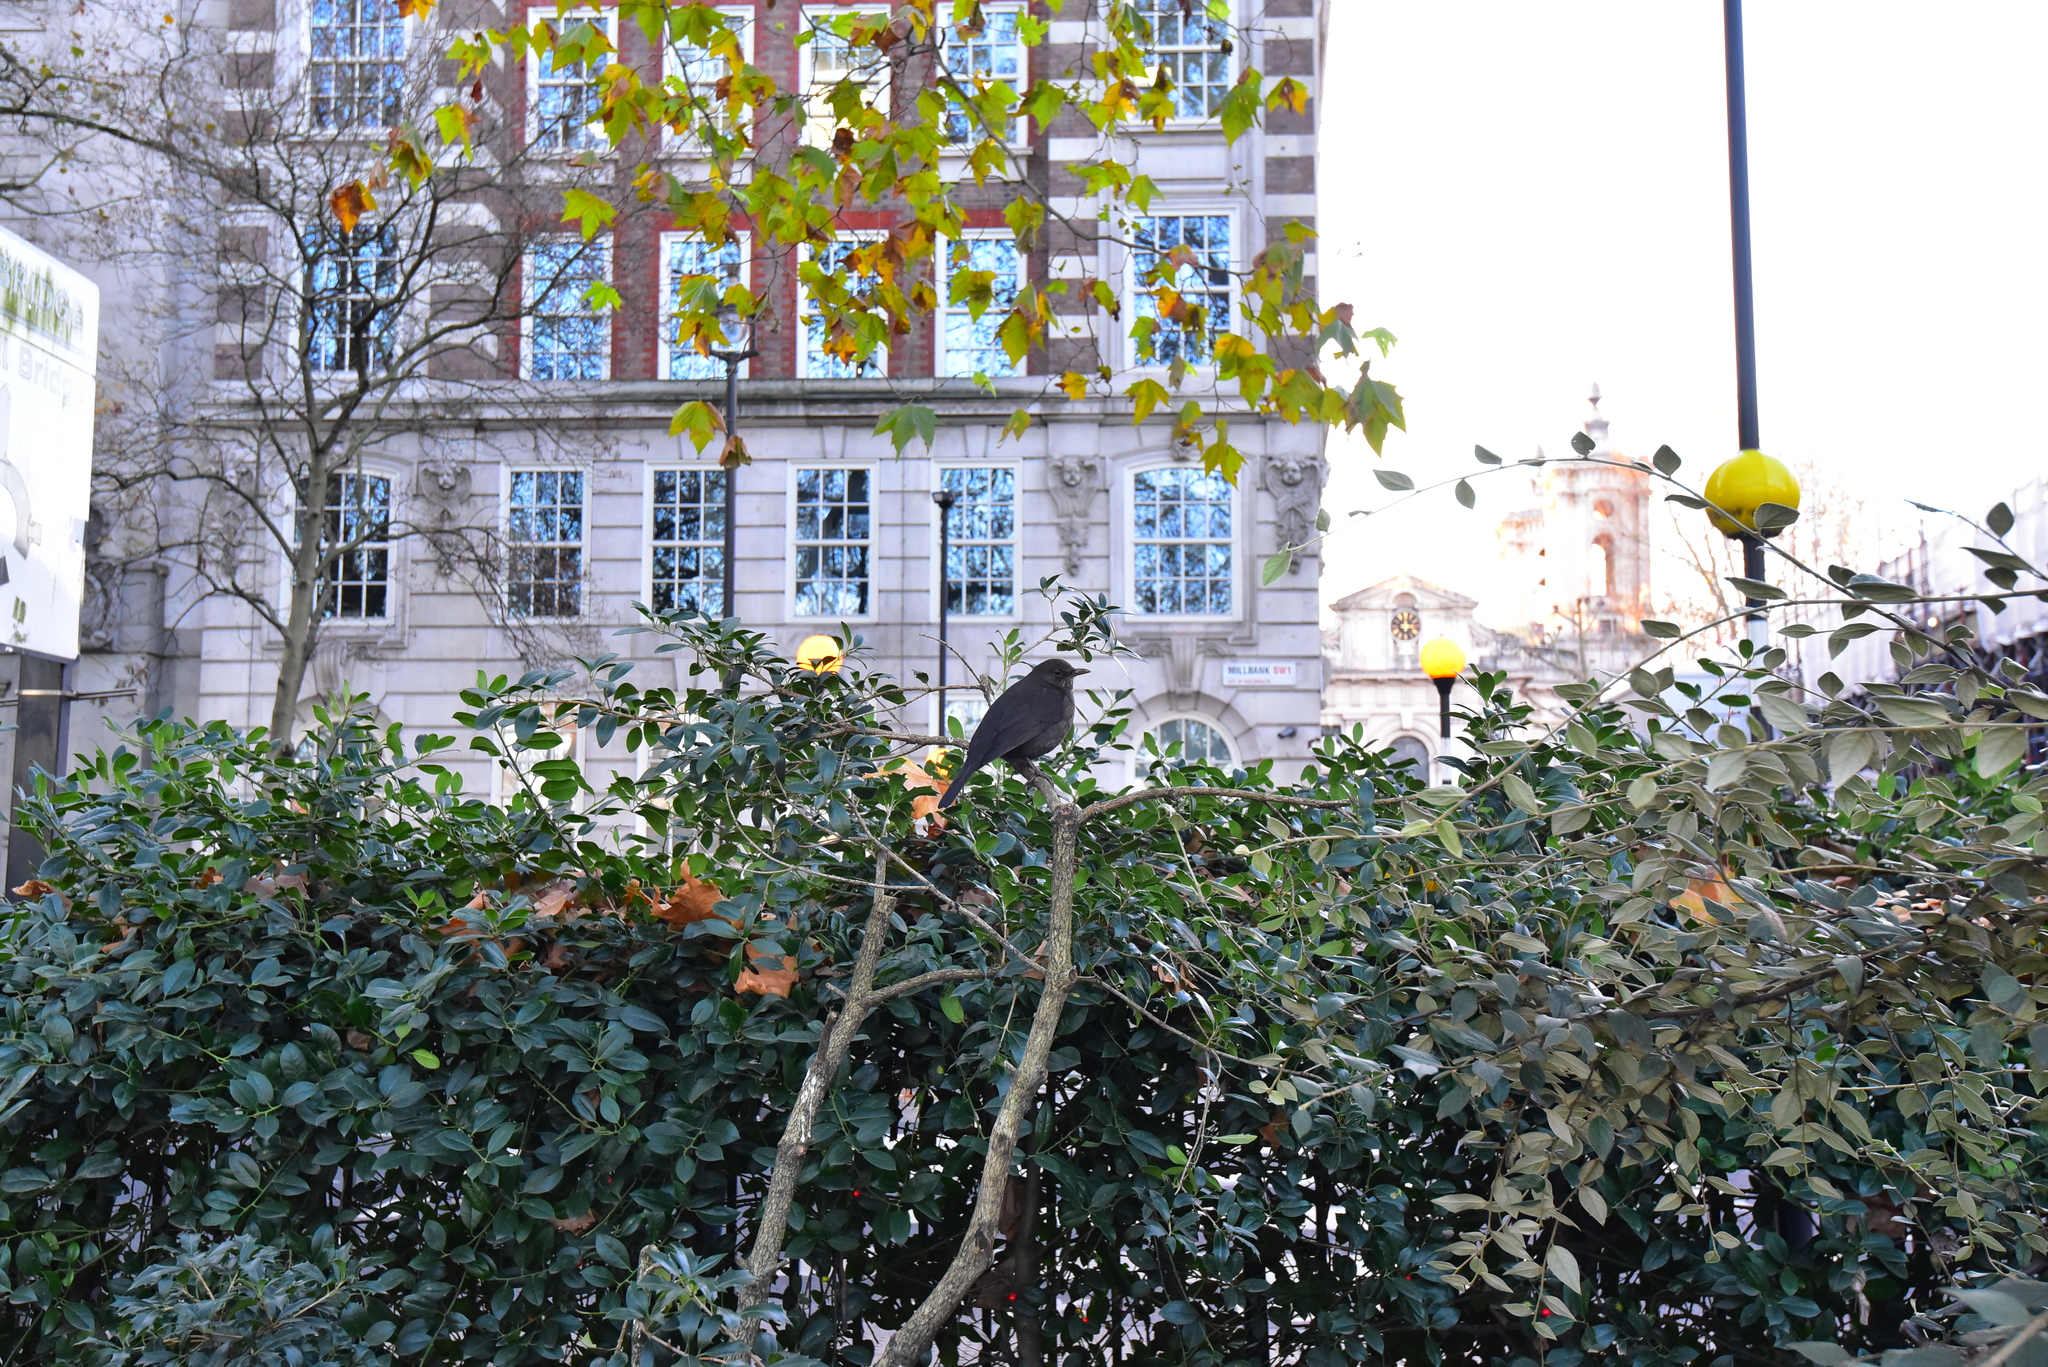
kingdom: Animalia
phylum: Chordata
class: Aves
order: Passeriformes
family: Turdidae
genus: Turdus
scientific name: Turdus merula
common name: Common blackbird
